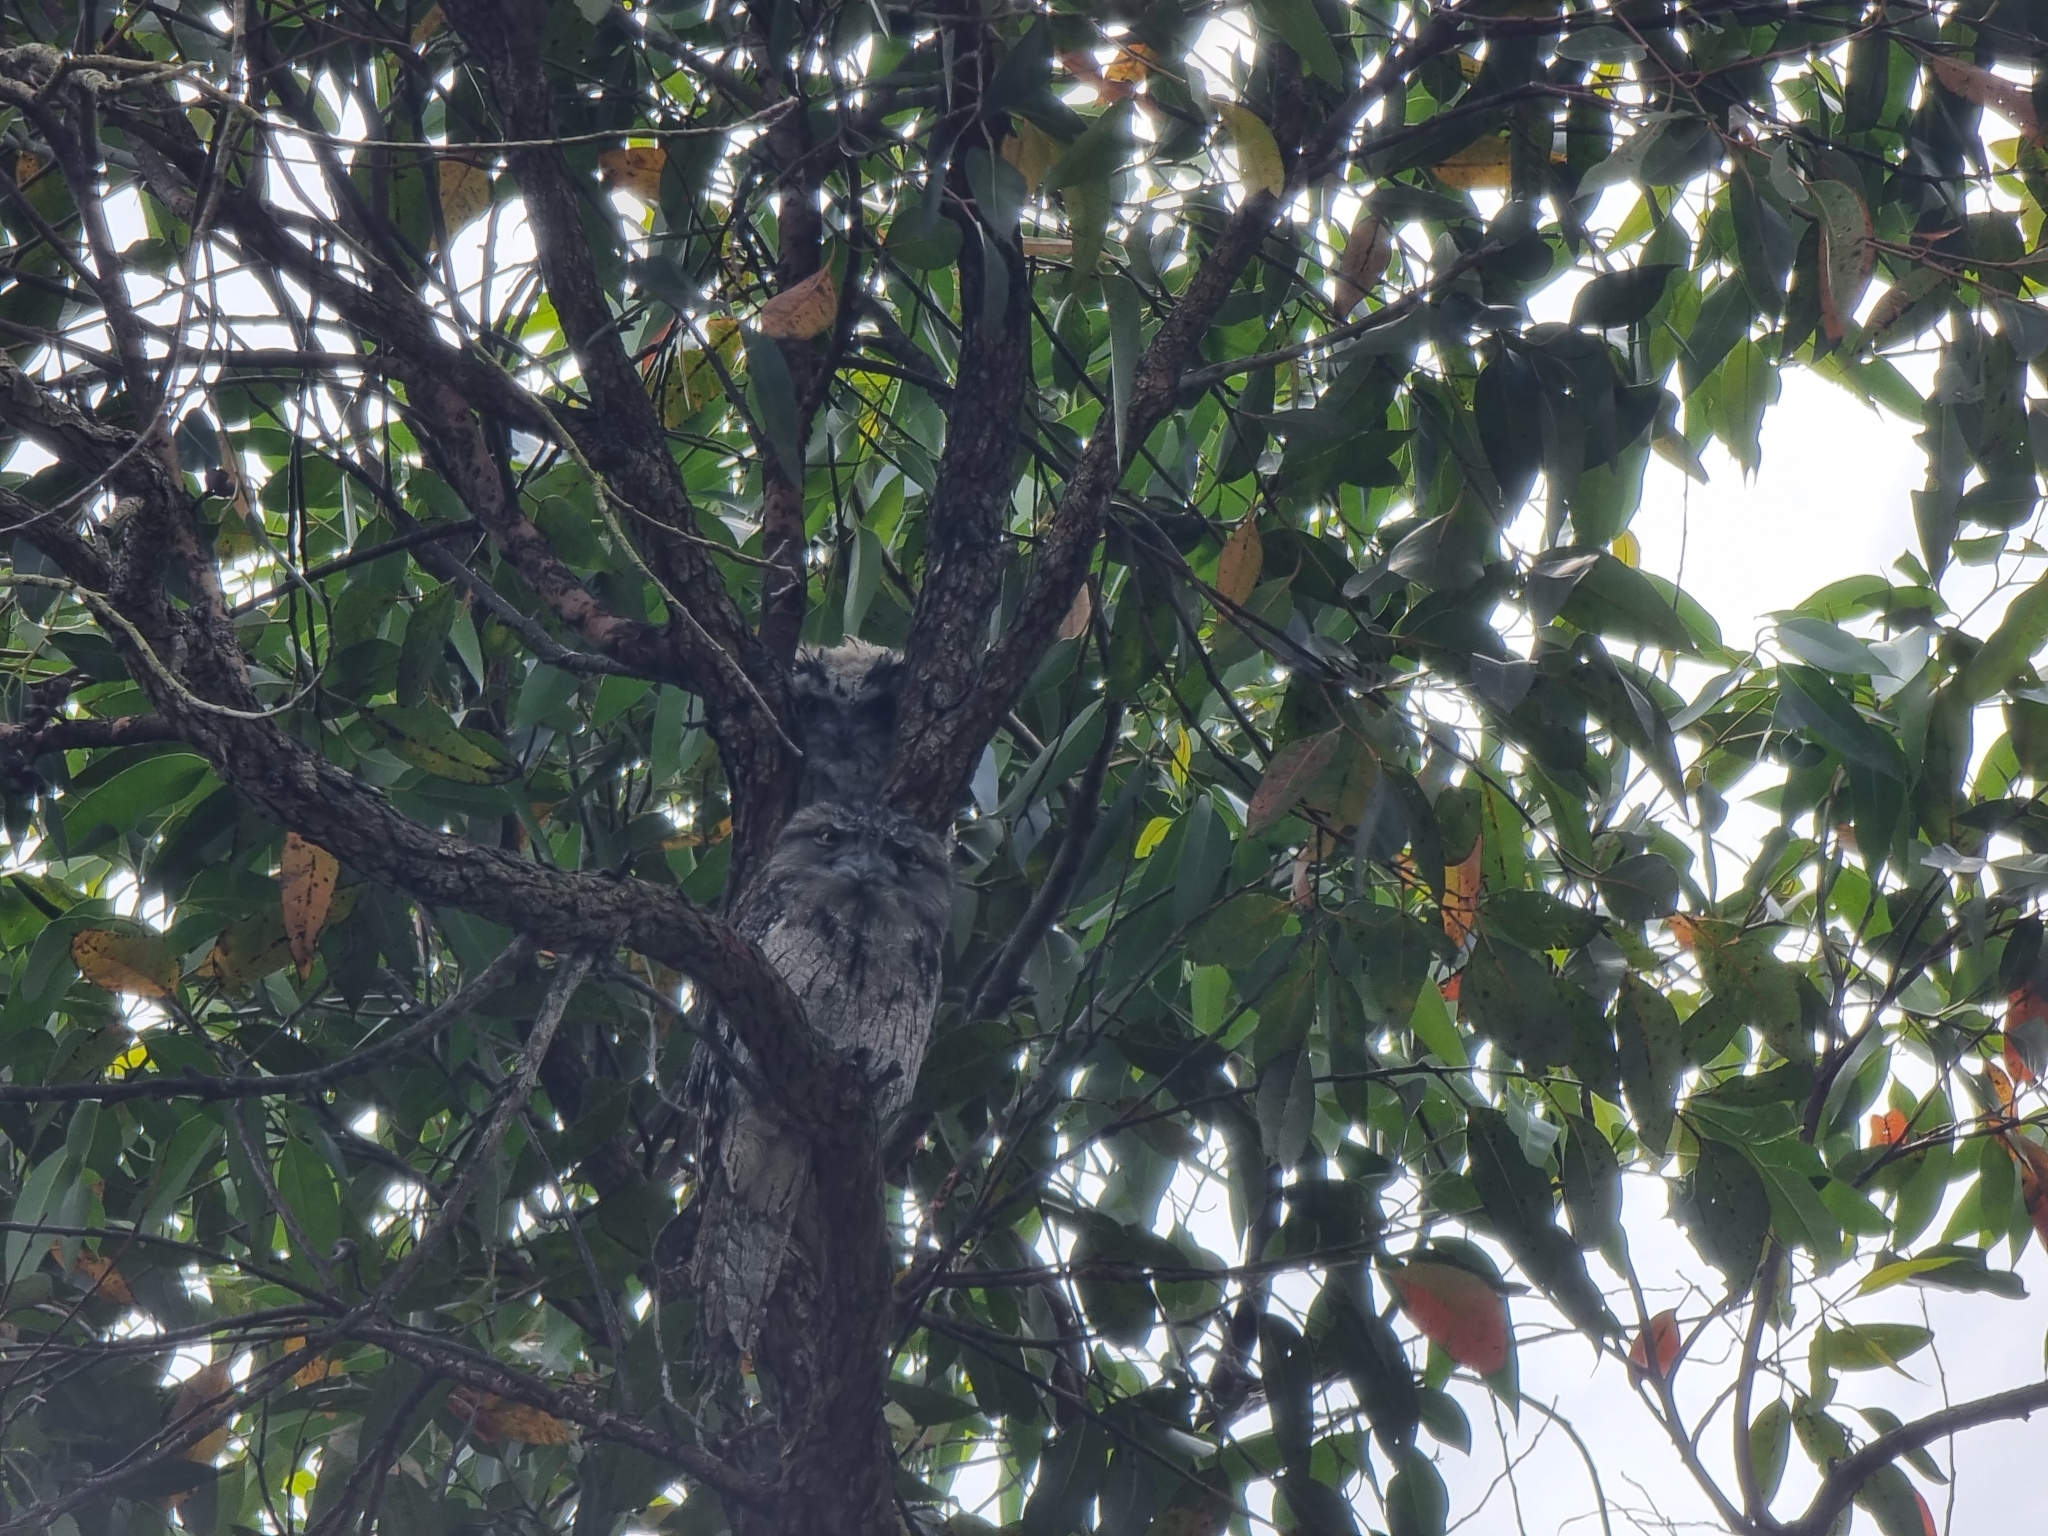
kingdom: Animalia
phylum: Chordata
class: Aves
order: Caprimulgiformes
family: Podargidae
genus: Podargus
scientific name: Podargus strigoides
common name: Tawny frogmouth
